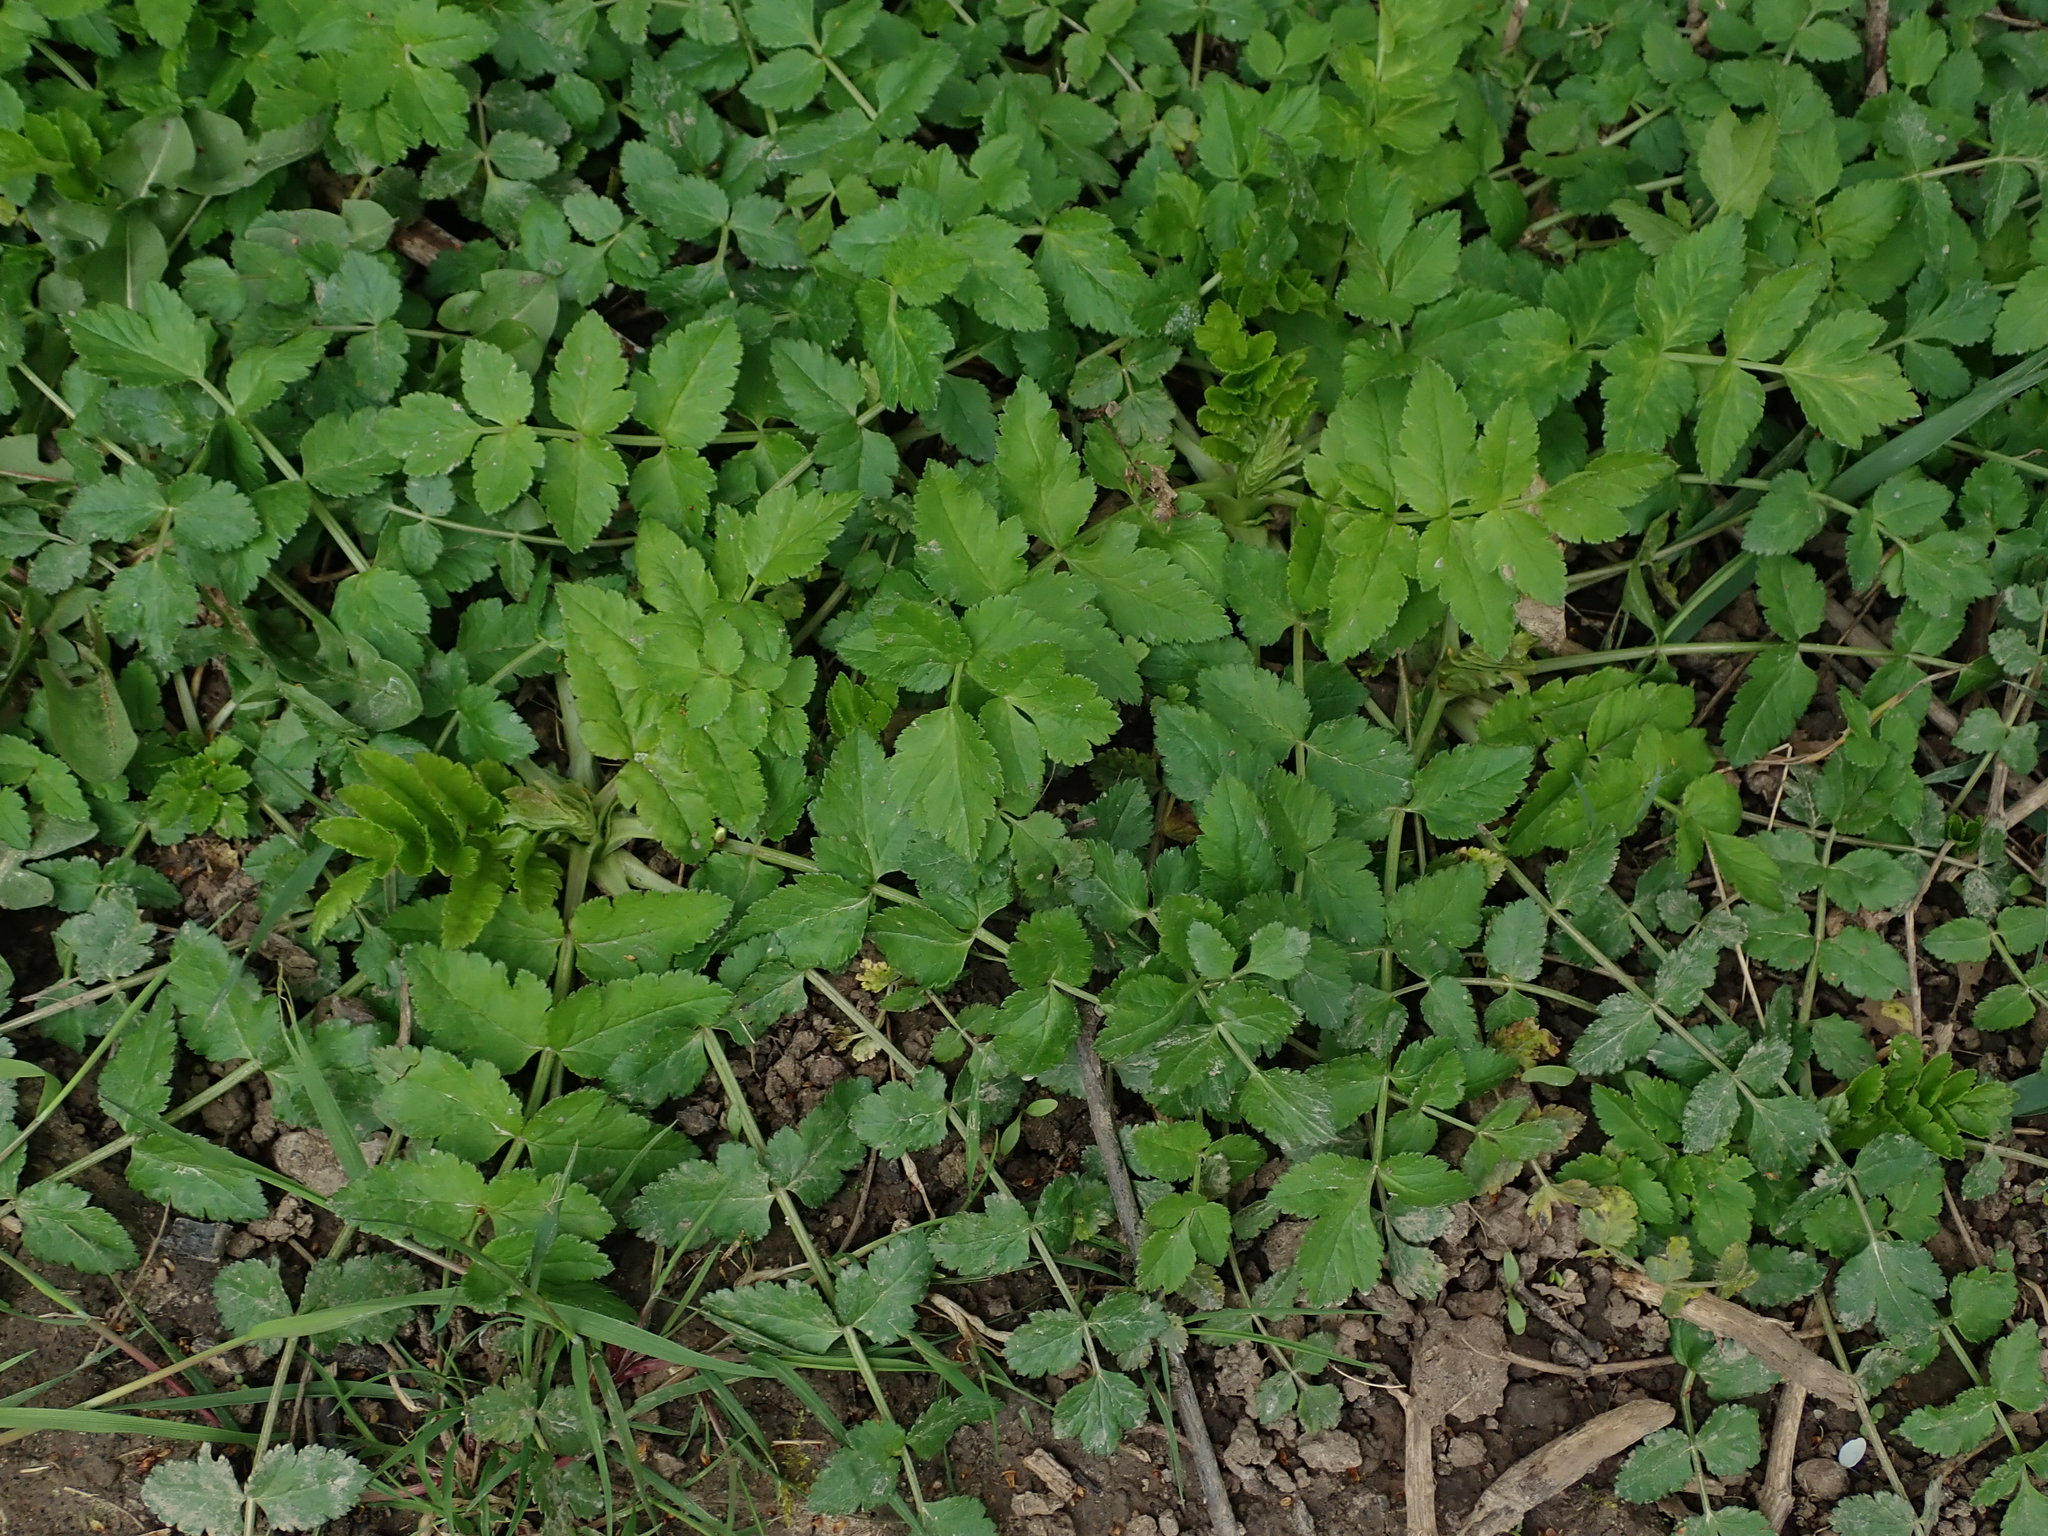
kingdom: Plantae
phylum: Tracheophyta
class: Magnoliopsida
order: Apiales
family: Apiaceae
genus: Pastinaca
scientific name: Pastinaca sativa
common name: Wild parsnip
